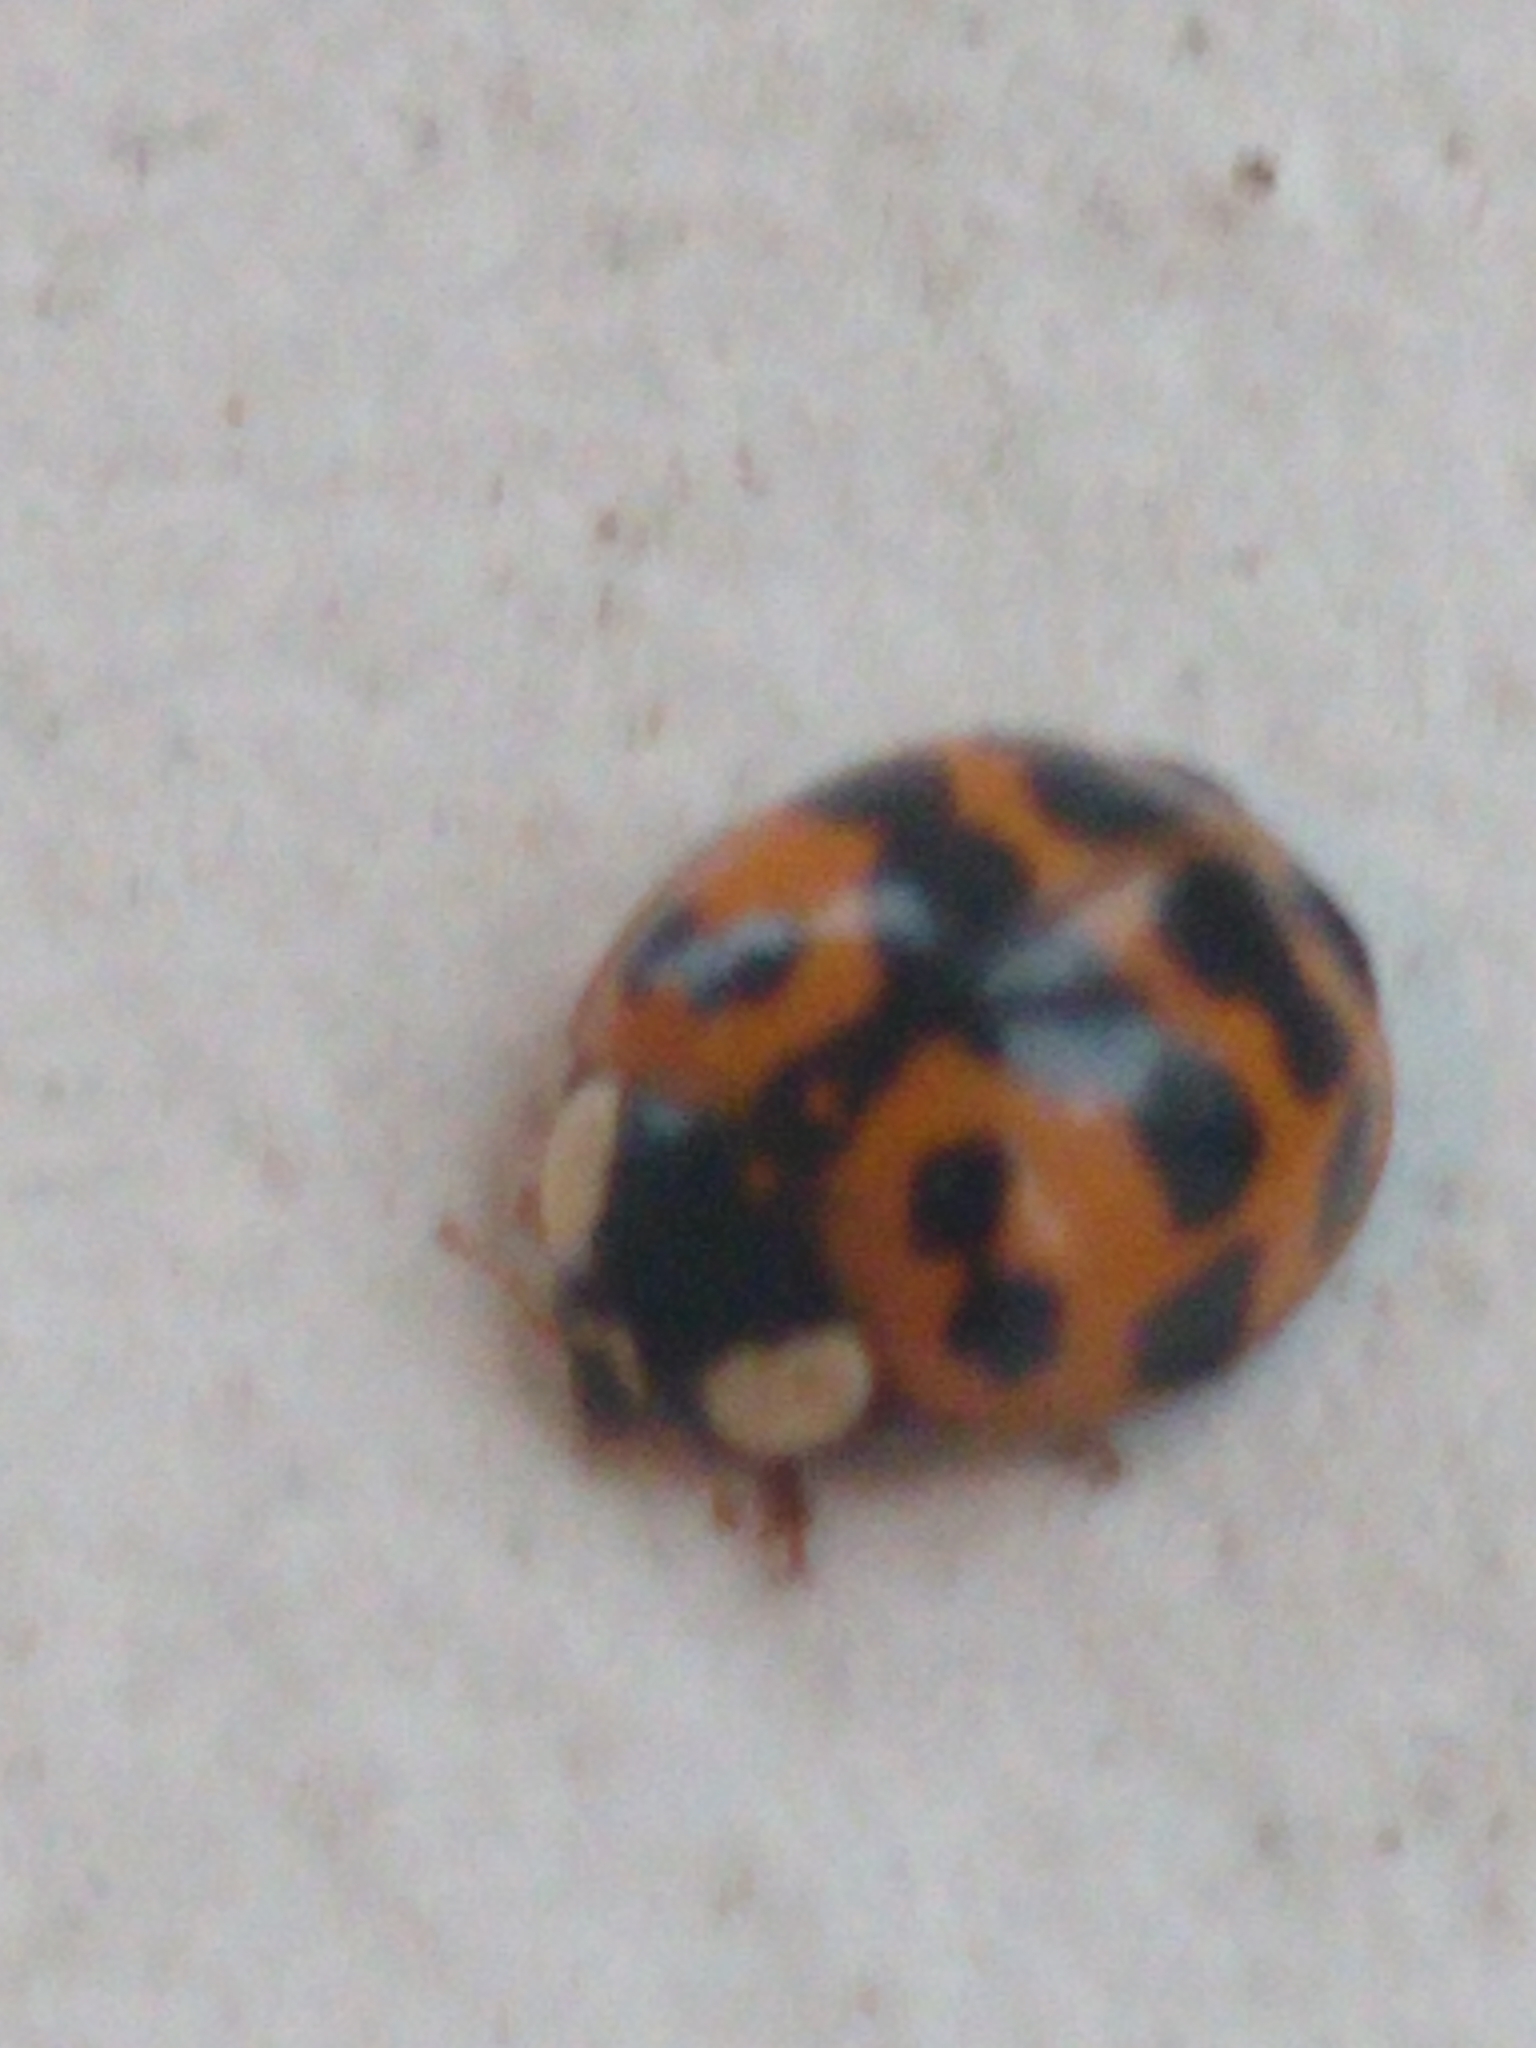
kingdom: Animalia
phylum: Arthropoda
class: Insecta
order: Coleoptera
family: Coccinellidae
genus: Harmonia
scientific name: Harmonia axyridis
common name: Harlequin ladybird
